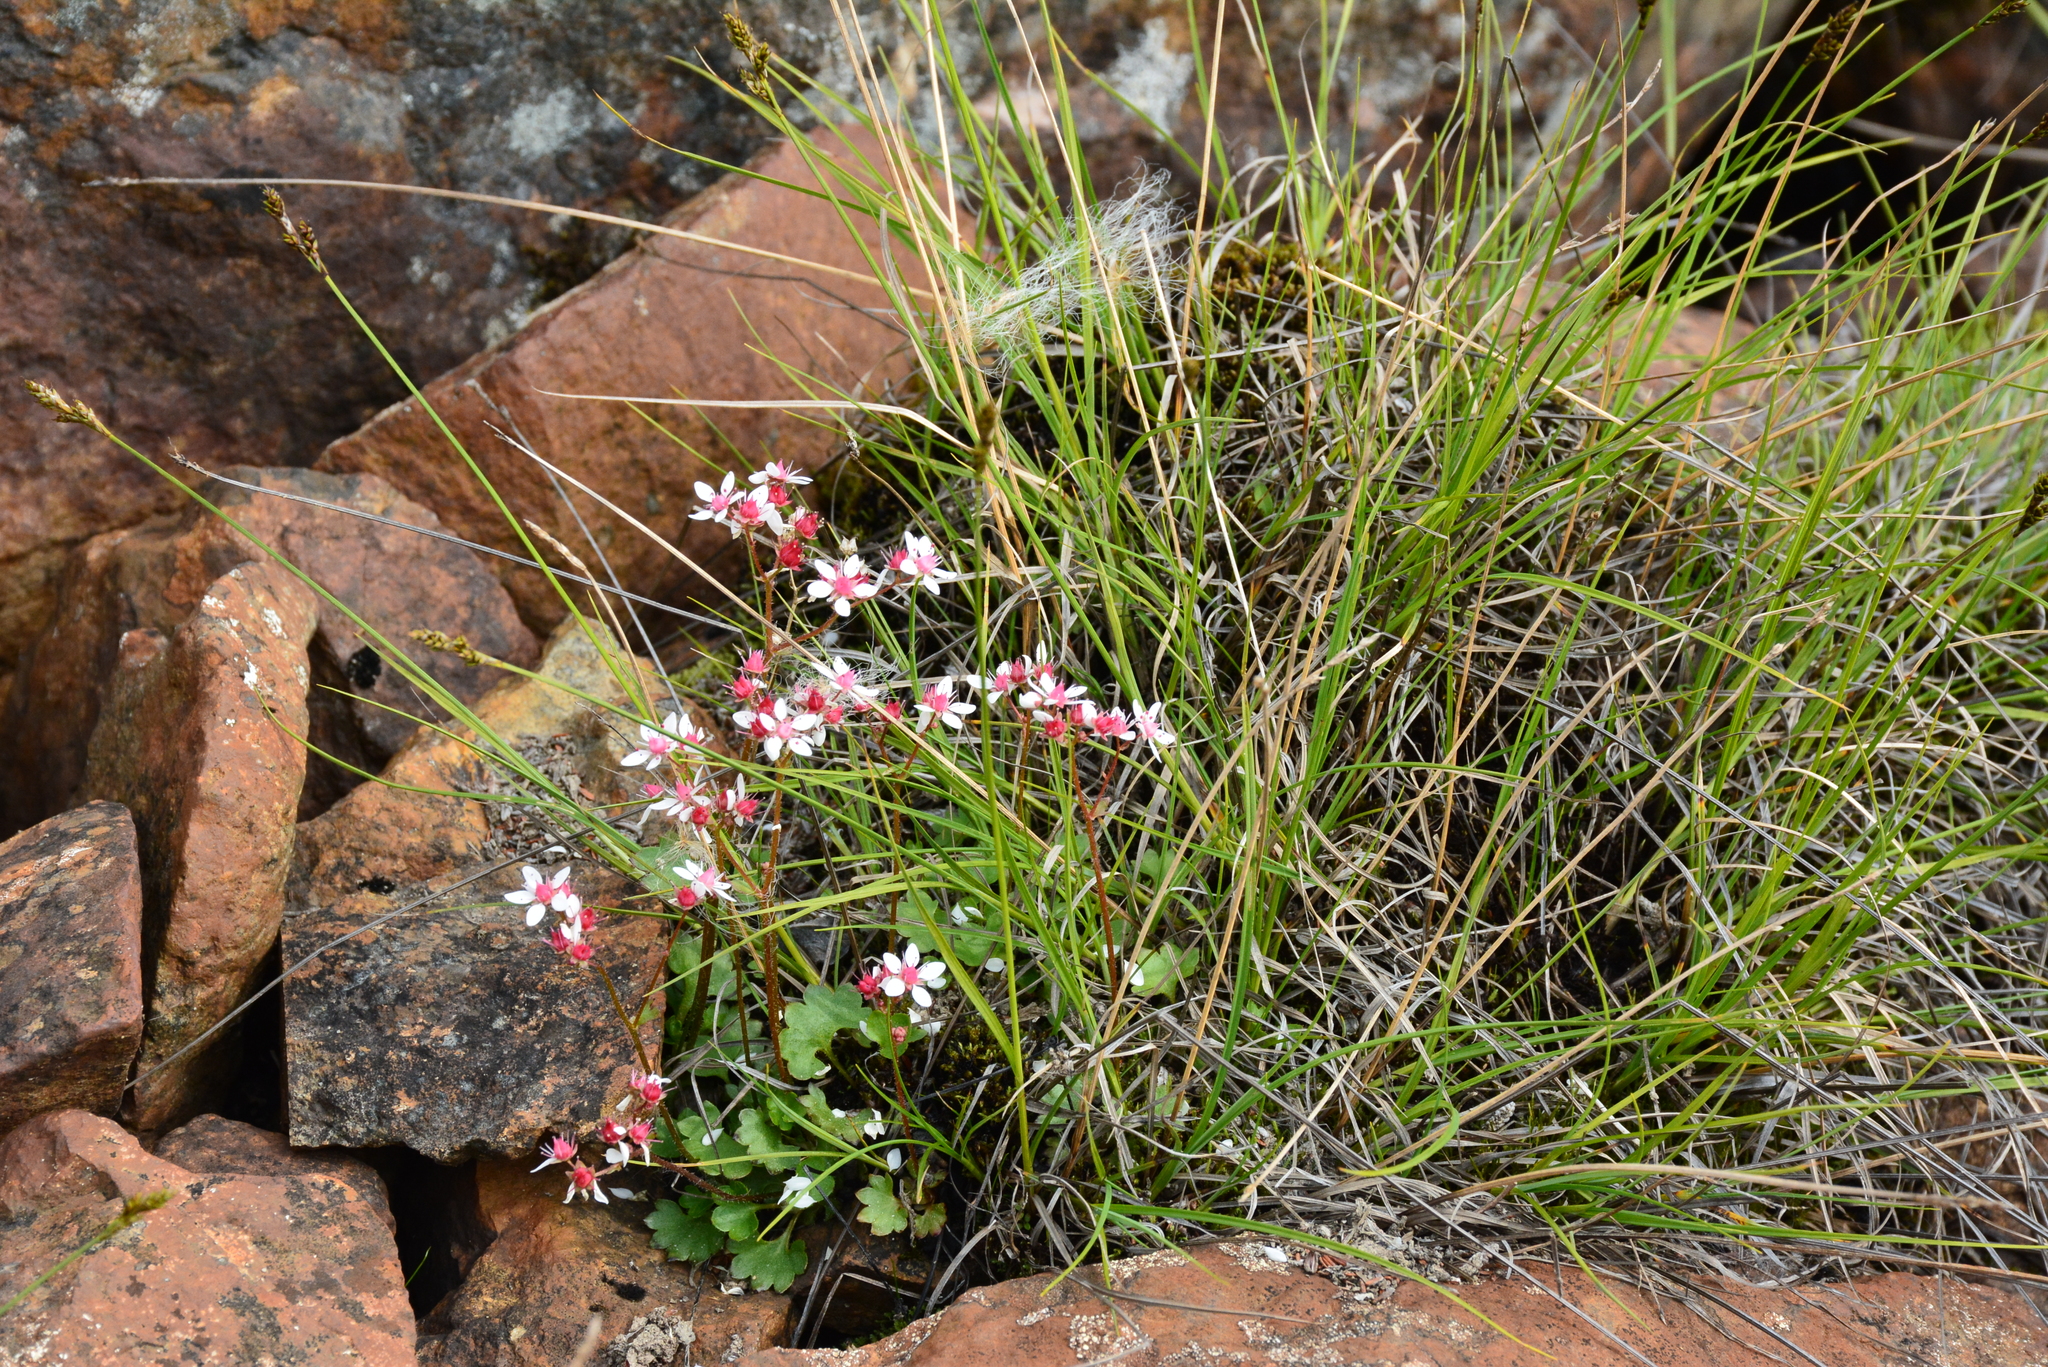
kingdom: Plantae
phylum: Tracheophyta
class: Magnoliopsida
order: Saxifragales
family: Saxifragaceae
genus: Micranthes
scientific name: Micranthes nudicaulis
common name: Nakedstem saxifrage
